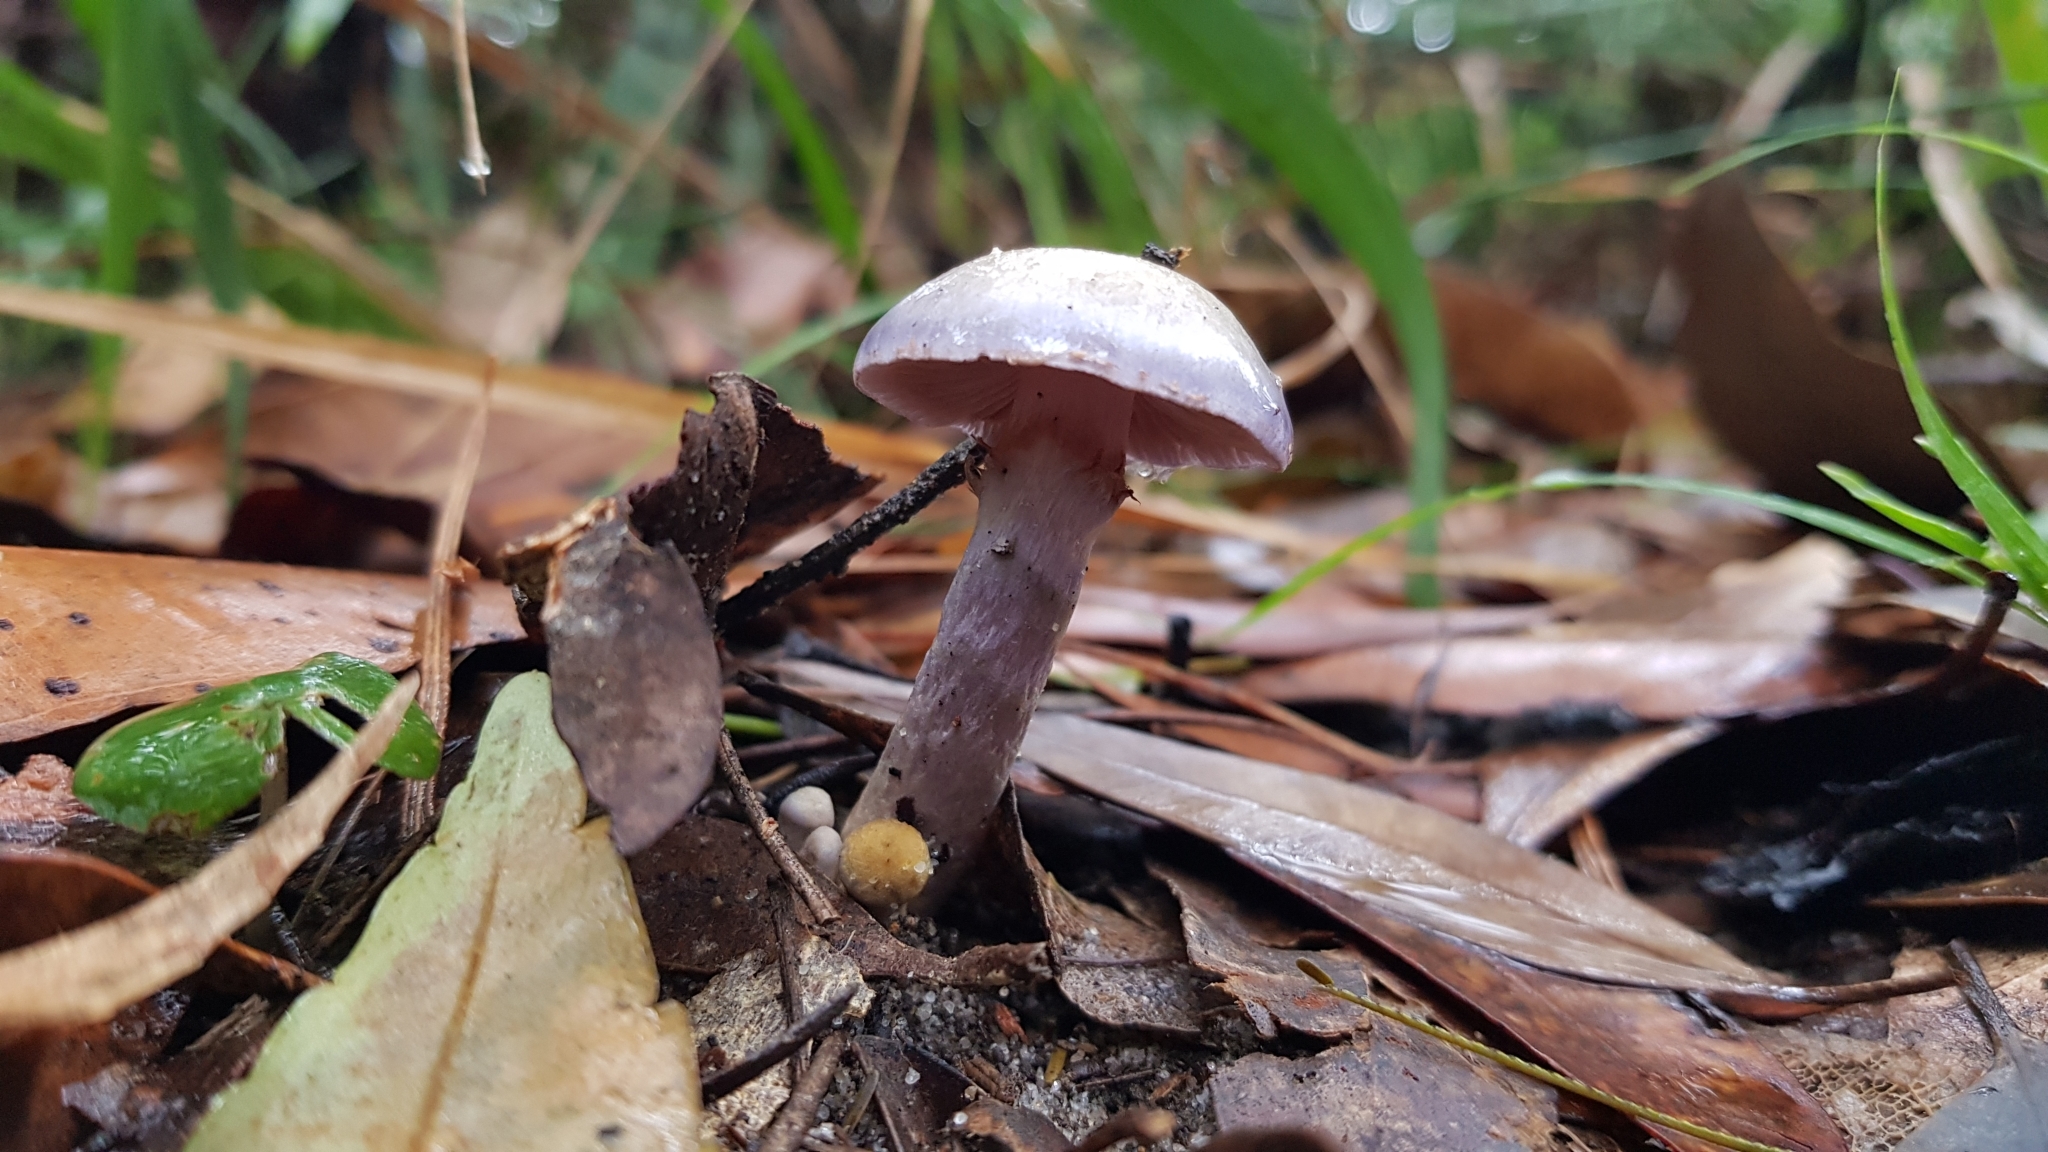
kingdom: Fungi
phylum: Basidiomycota
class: Agaricomycetes
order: Agaricales
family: Cortinariaceae
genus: Cortinarius
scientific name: Cortinarius rotundisporus
